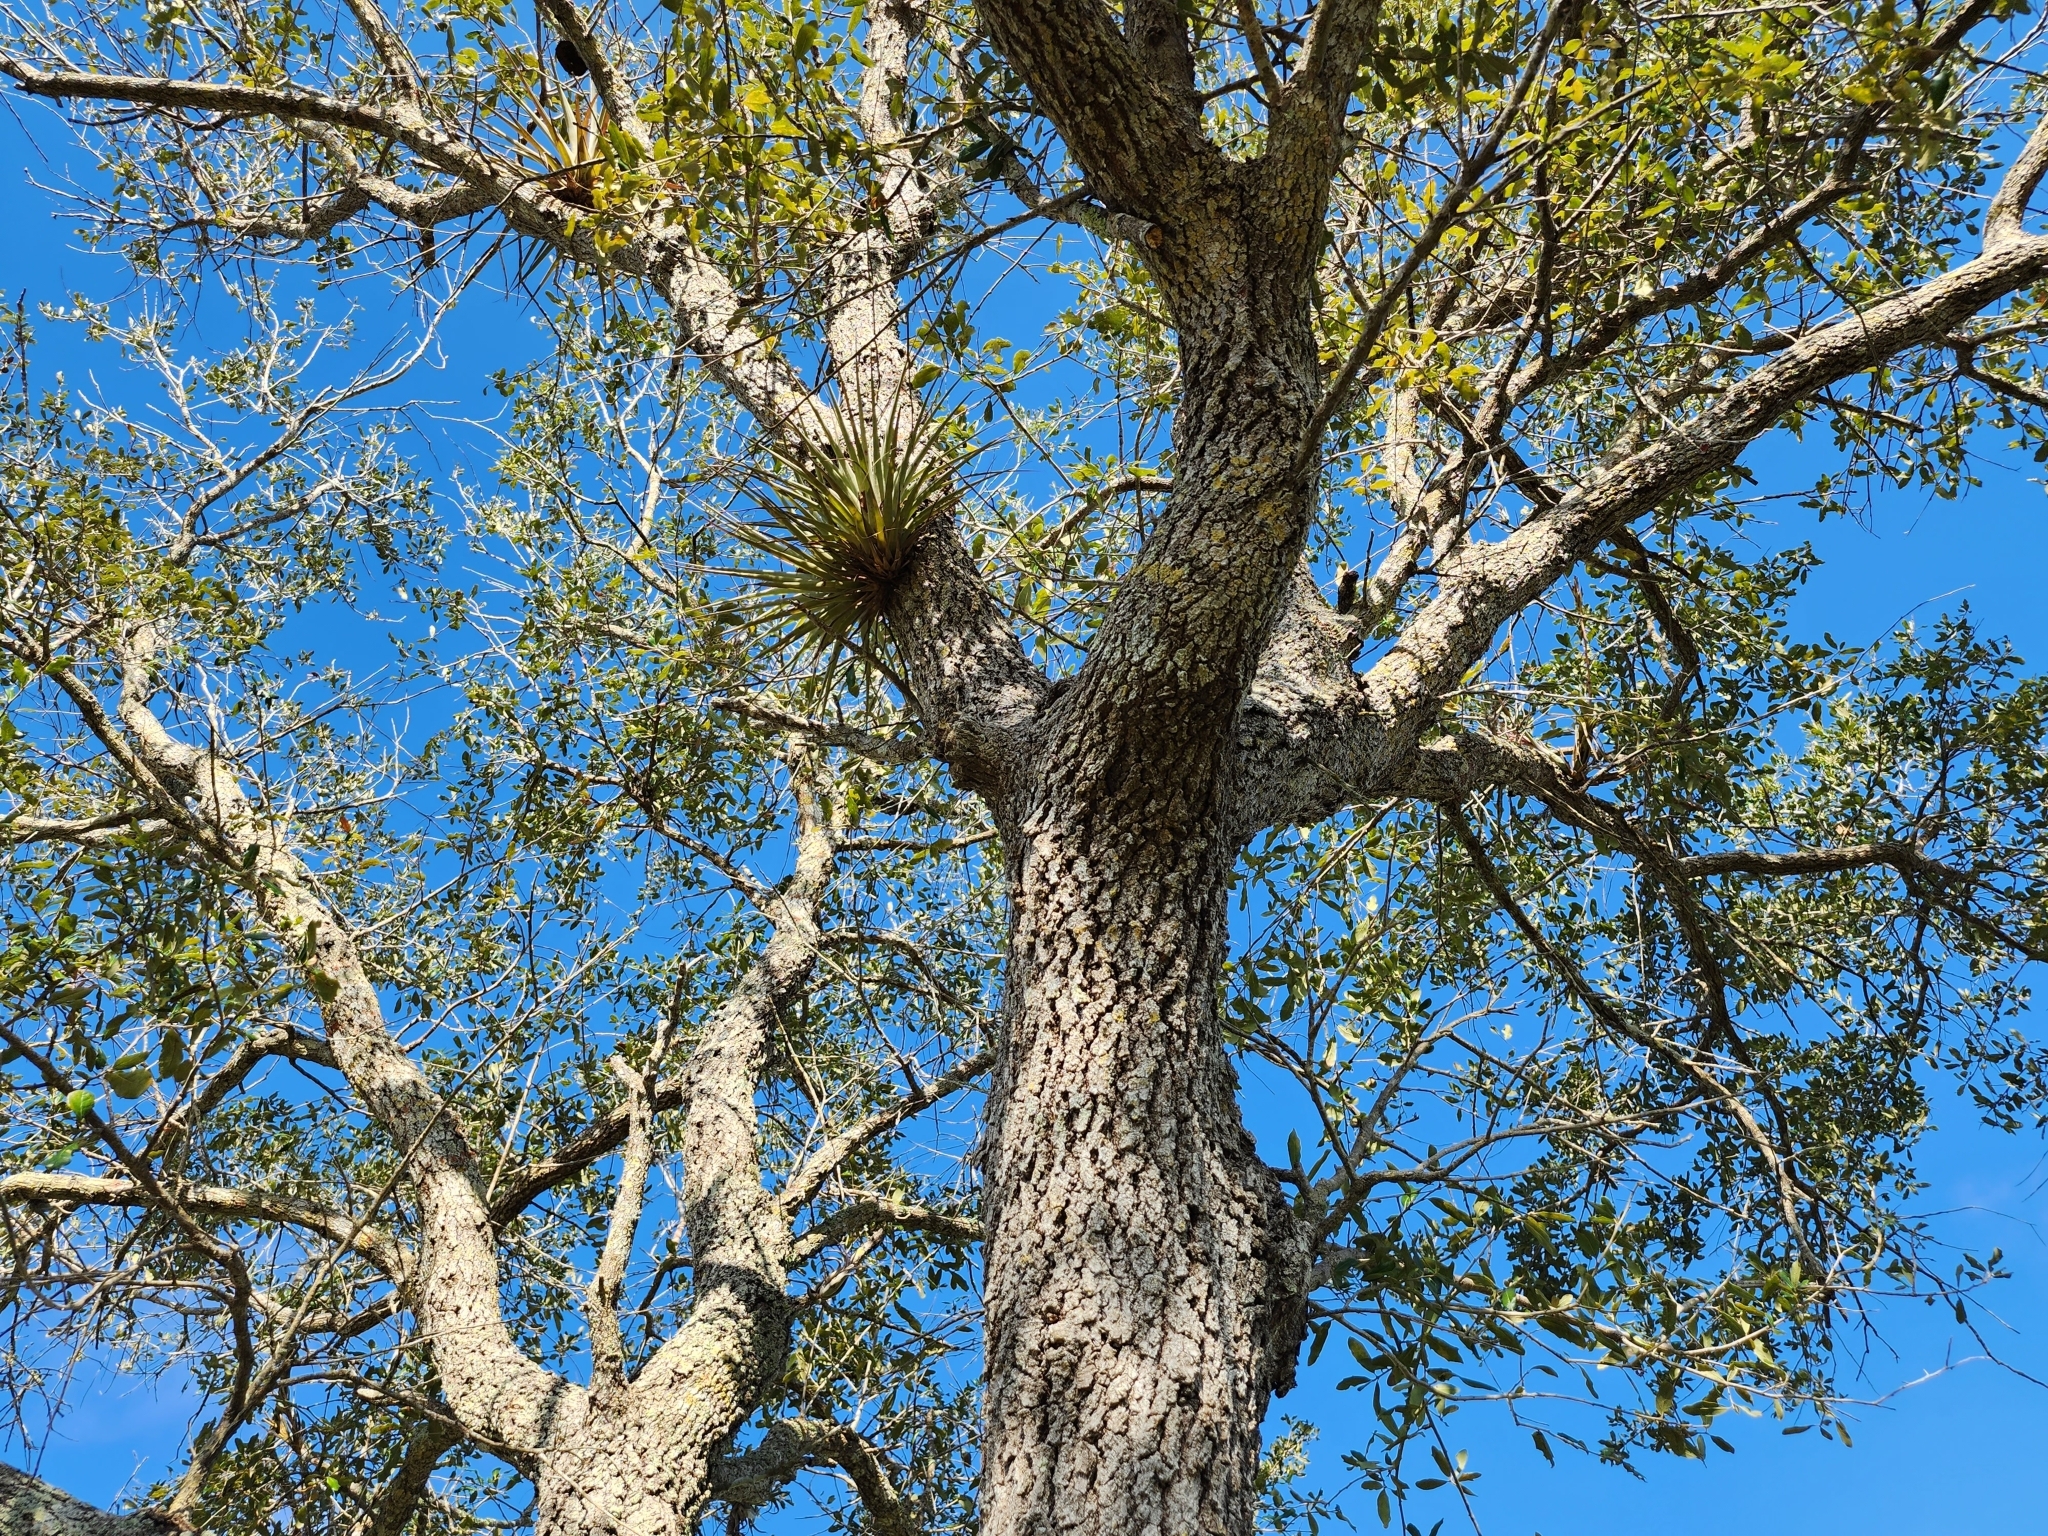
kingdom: Plantae
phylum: Tracheophyta
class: Liliopsida
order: Poales
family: Bromeliaceae
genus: Tillandsia
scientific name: Tillandsia fasciculata
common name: Giant airplant
